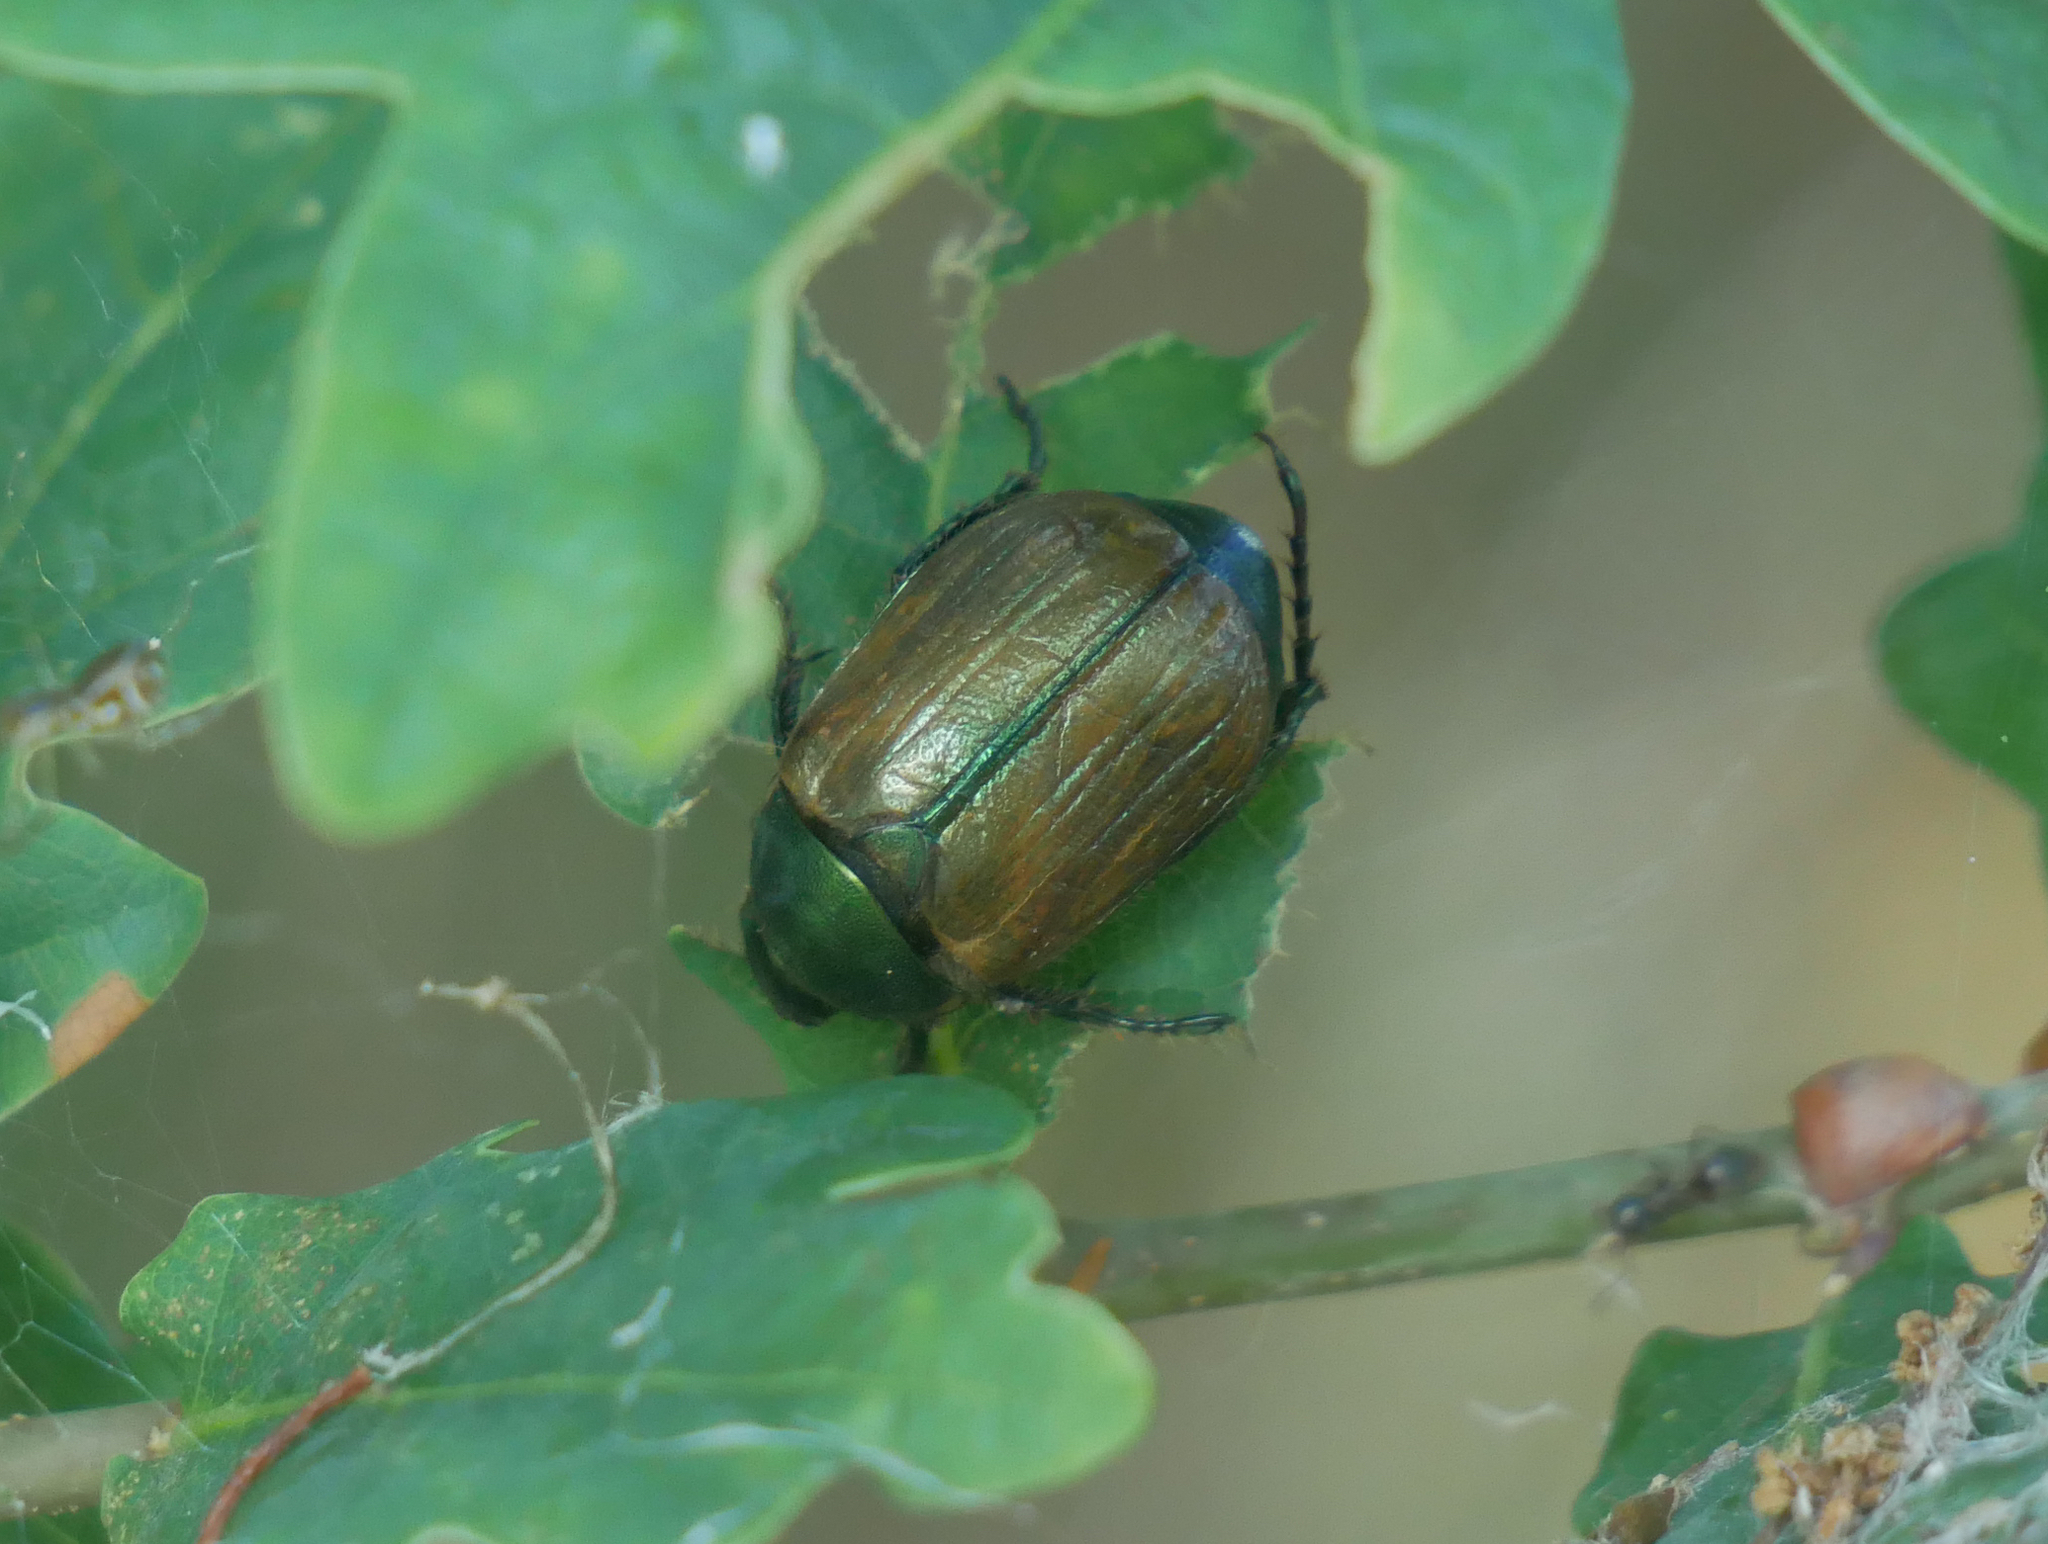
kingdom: Animalia
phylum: Arthropoda
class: Insecta
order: Coleoptera
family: Scarabaeidae
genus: Anomala
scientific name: Anomala dubia
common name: Dune chafer
